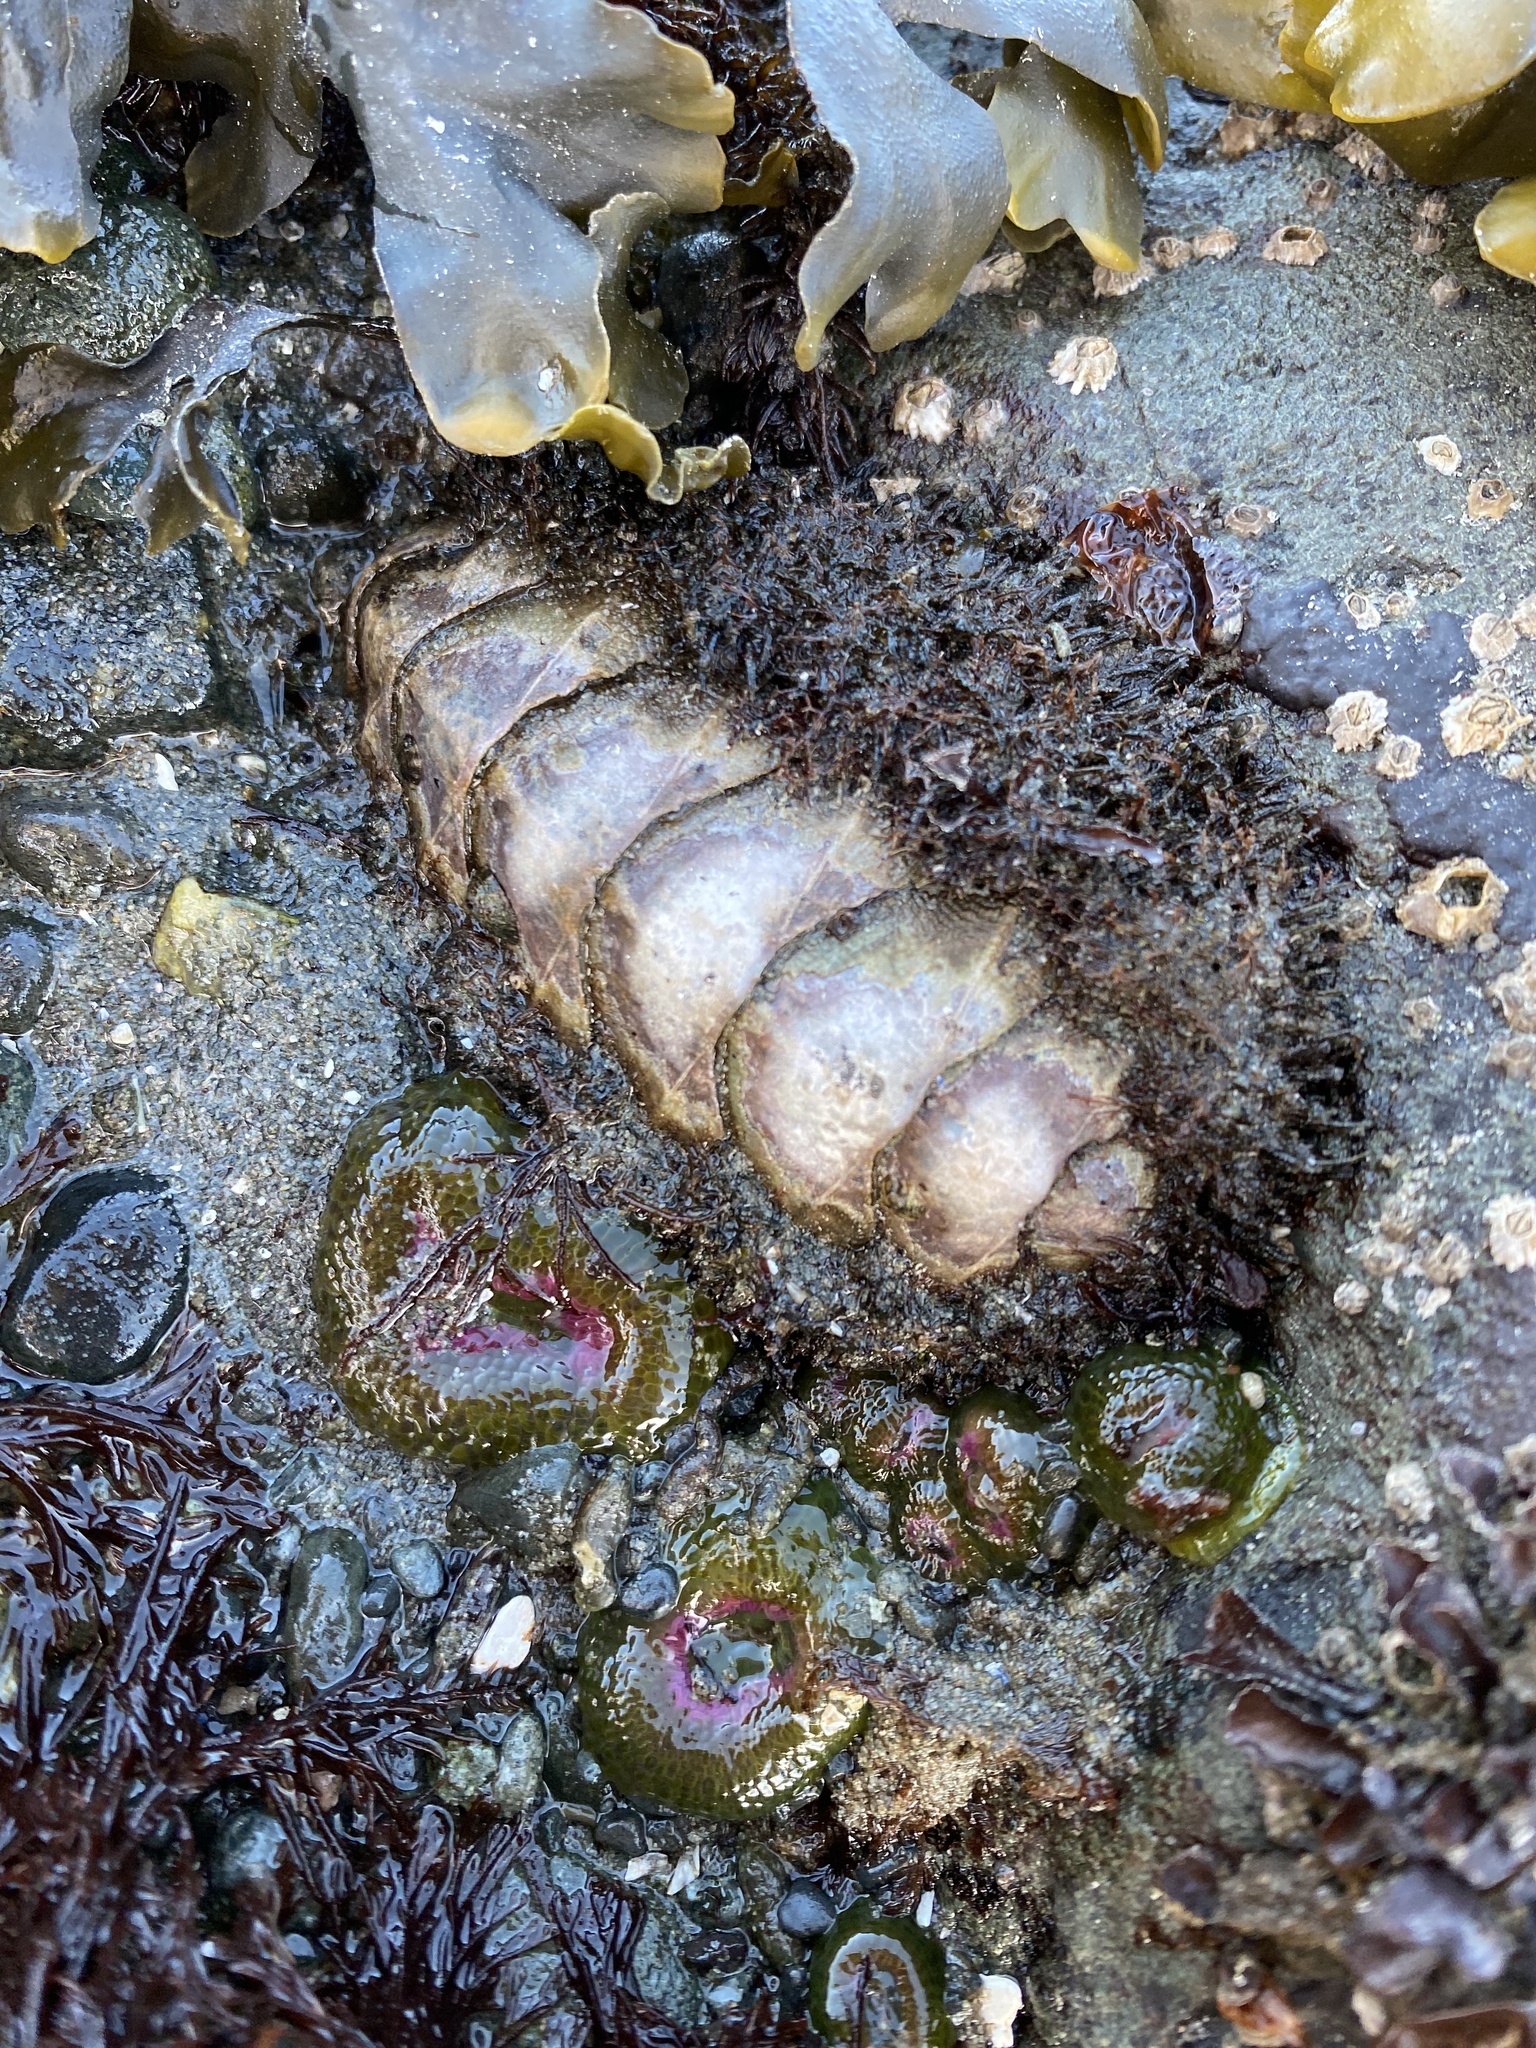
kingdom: Animalia
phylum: Mollusca
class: Polyplacophora
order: Chitonida
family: Mopaliidae
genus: Mopalia
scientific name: Mopalia muscosa
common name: Mossy chiton
